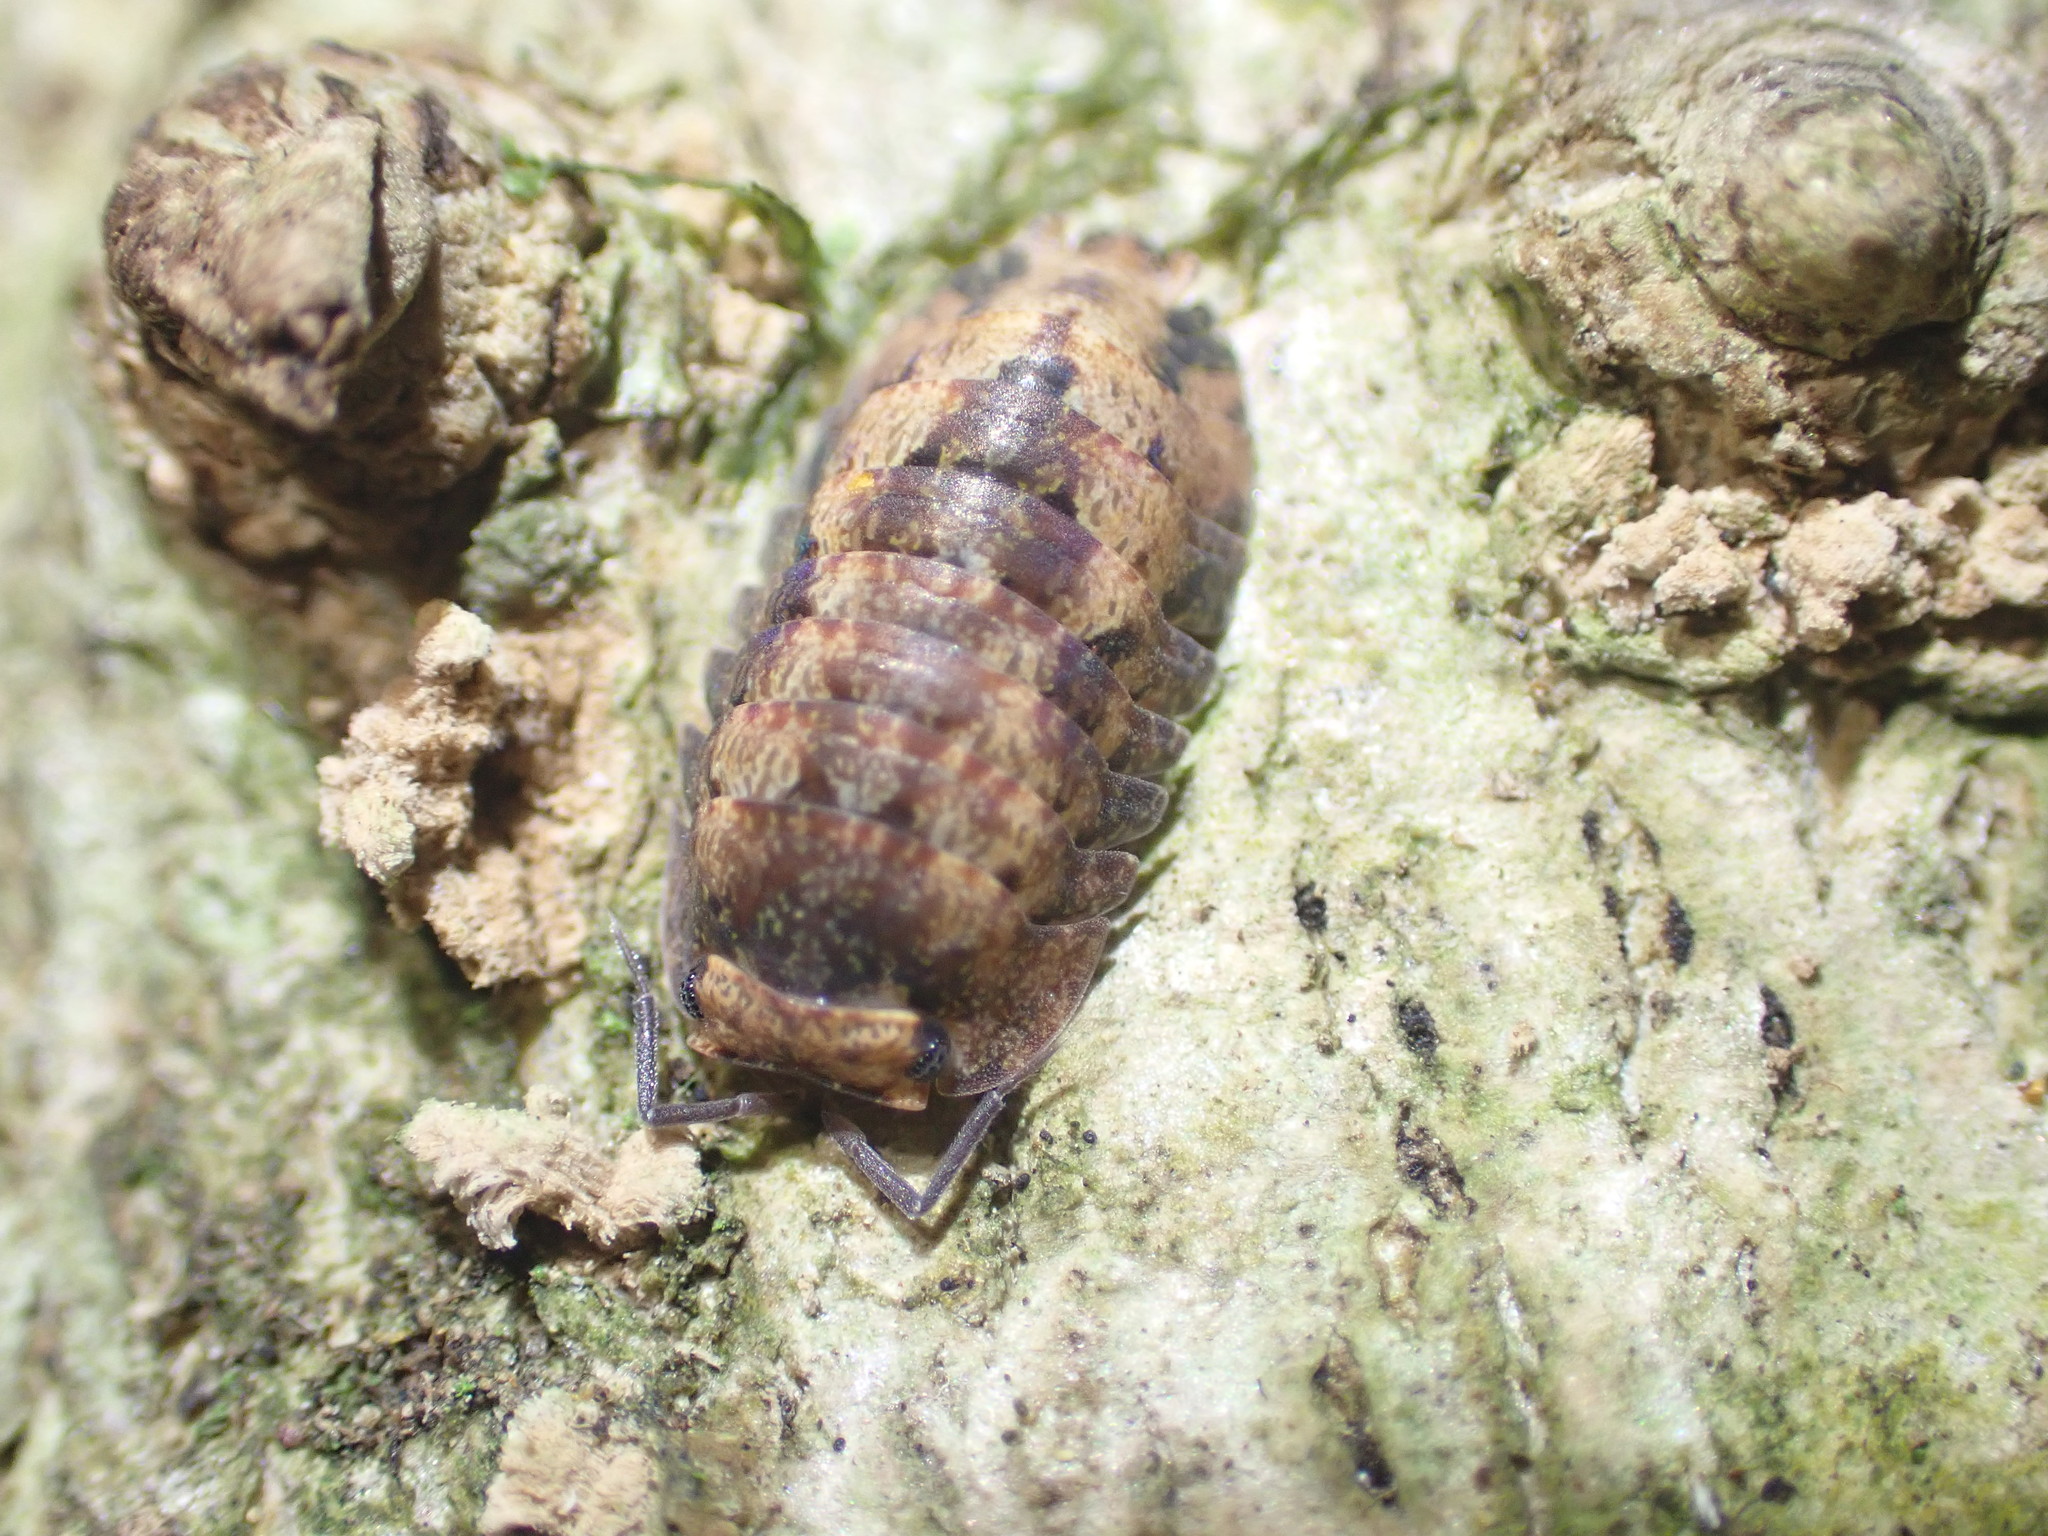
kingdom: Animalia
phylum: Arthropoda
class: Malacostraca
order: Isopoda
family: Armadillidae
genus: Cubaris
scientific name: Cubaris tarangensis
